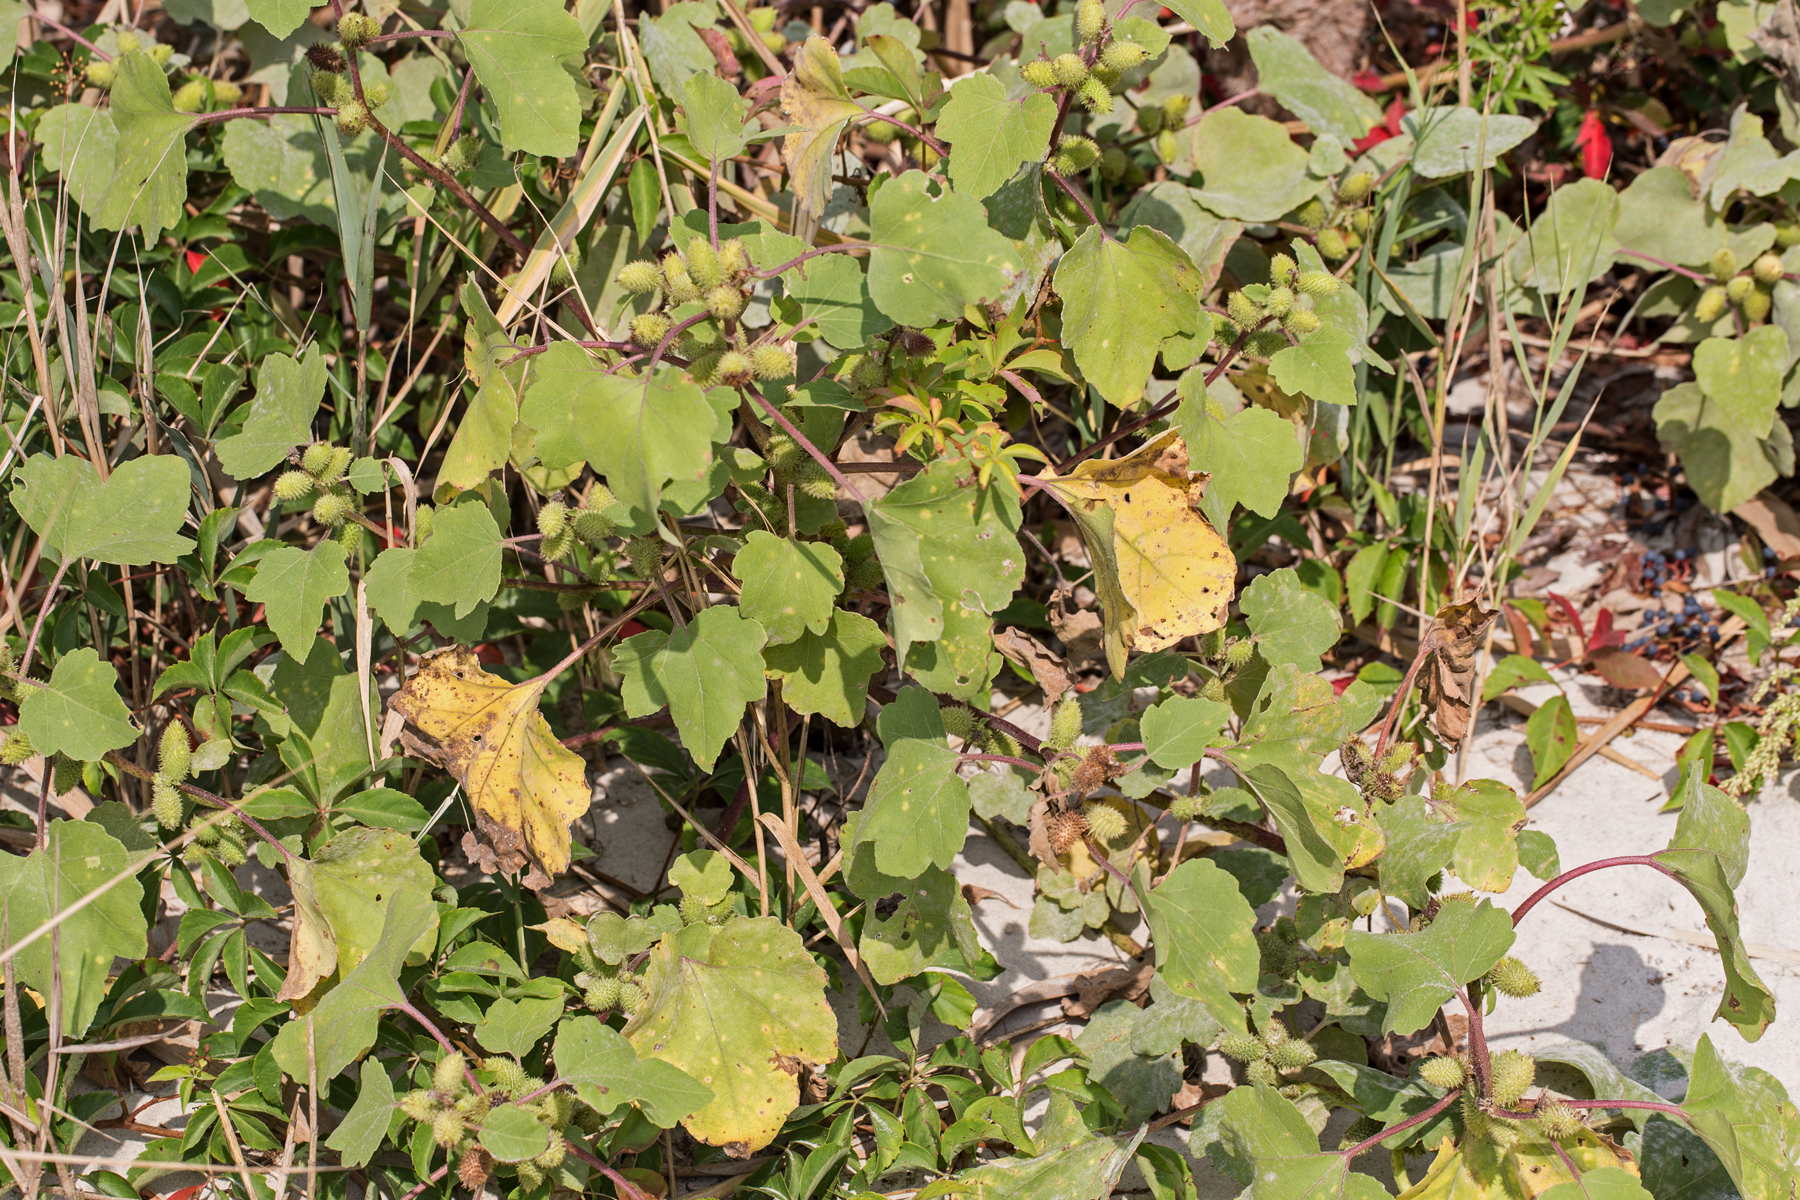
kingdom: Plantae
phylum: Tracheophyta
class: Magnoliopsida
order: Asterales
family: Asteraceae
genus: Xanthium
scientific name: Xanthium strumarium
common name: Rough cocklebur
